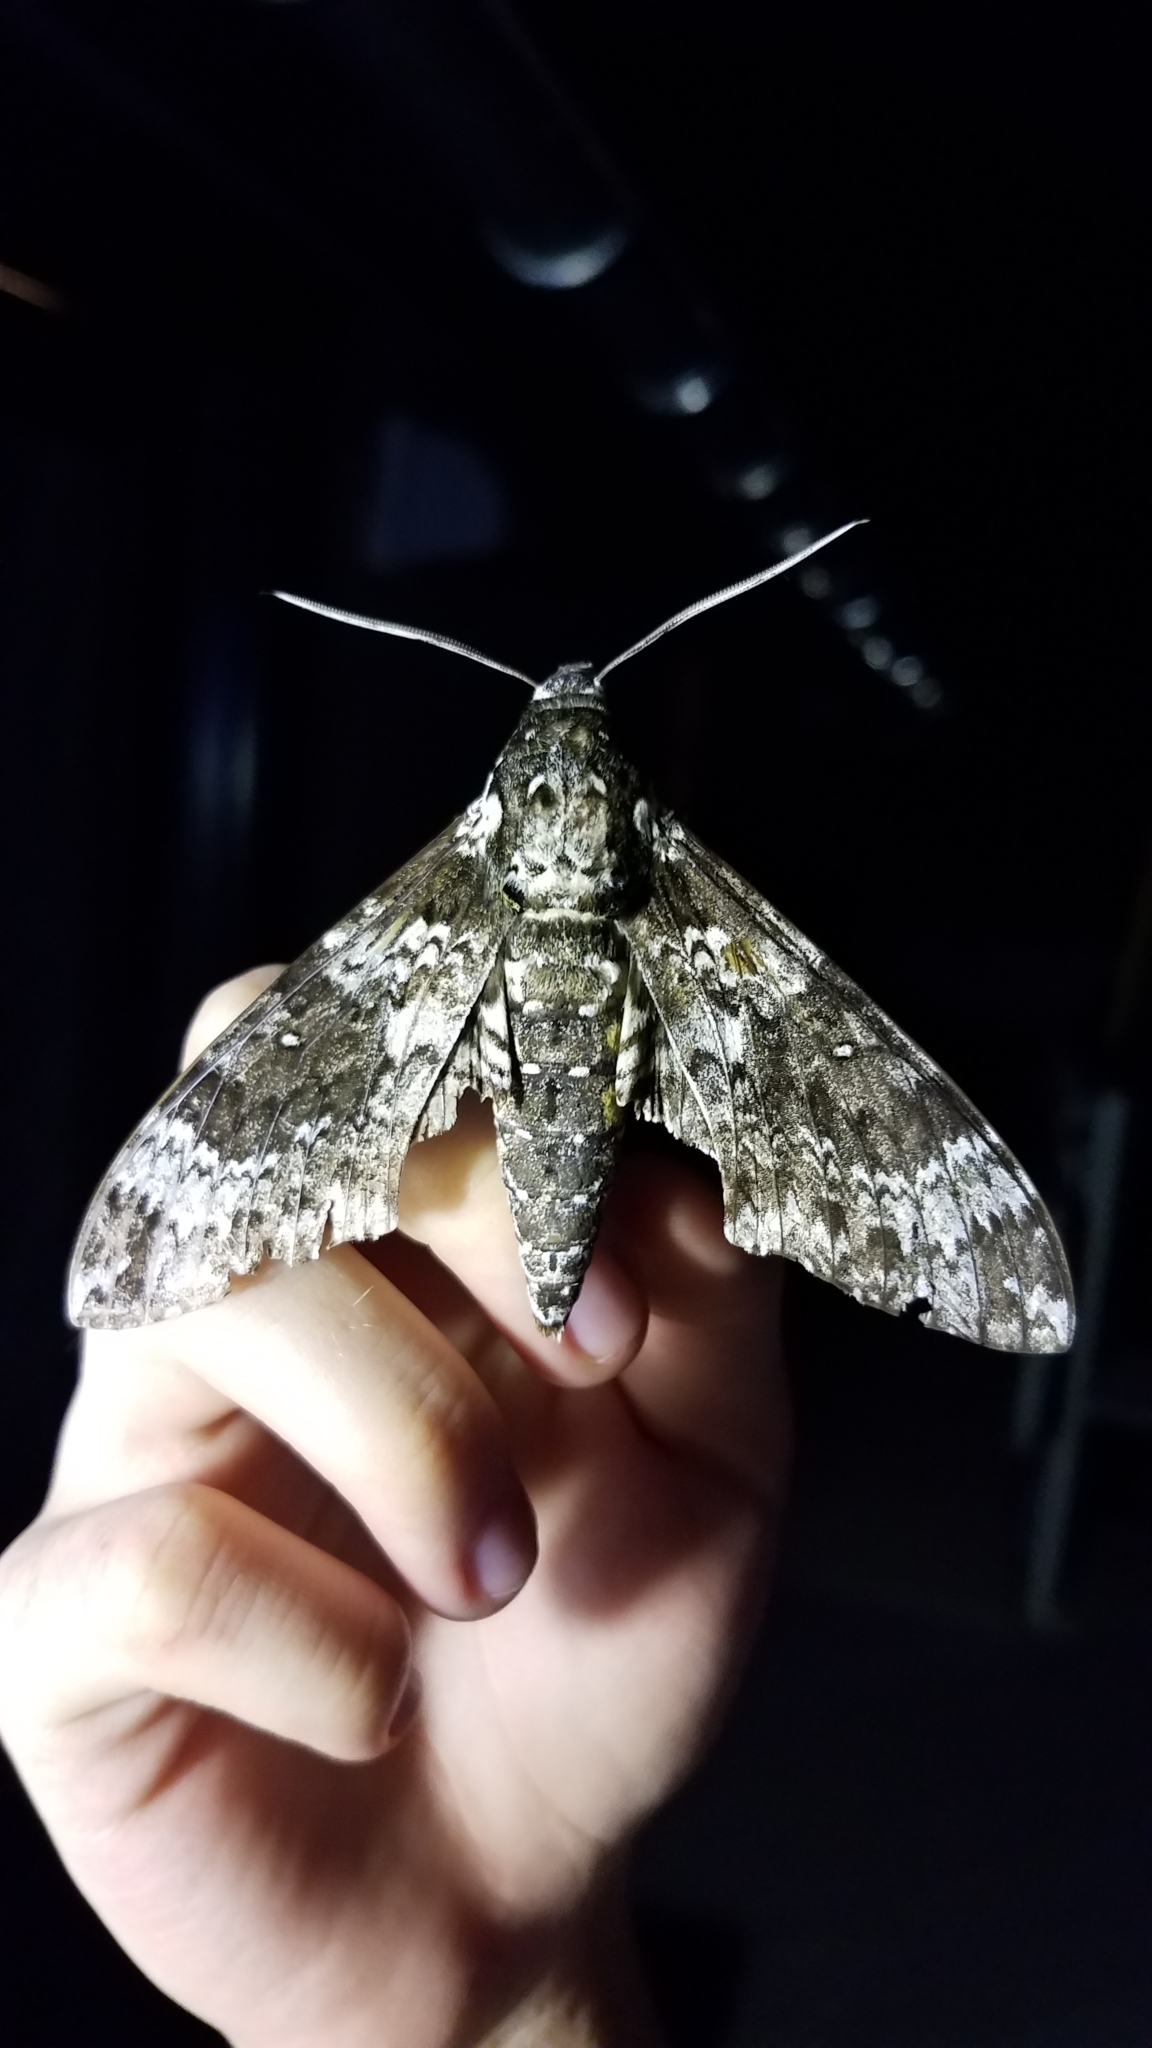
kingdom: Animalia
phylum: Arthropoda
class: Insecta
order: Lepidoptera
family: Sphingidae
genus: Manduca
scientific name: Manduca rustica
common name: Rustic sphinx
